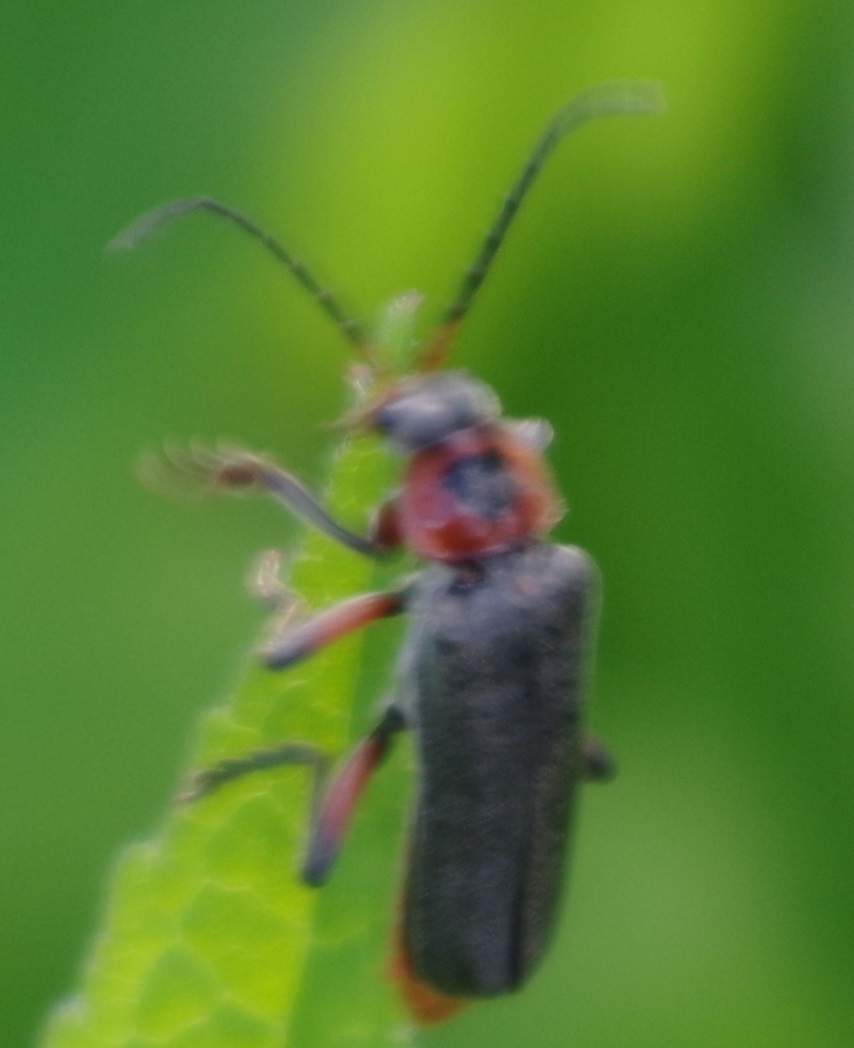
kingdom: Animalia
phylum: Arthropoda
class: Insecta
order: Coleoptera
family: Cantharidae
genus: Cantharis
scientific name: Cantharis rustica
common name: Soldier beetle
